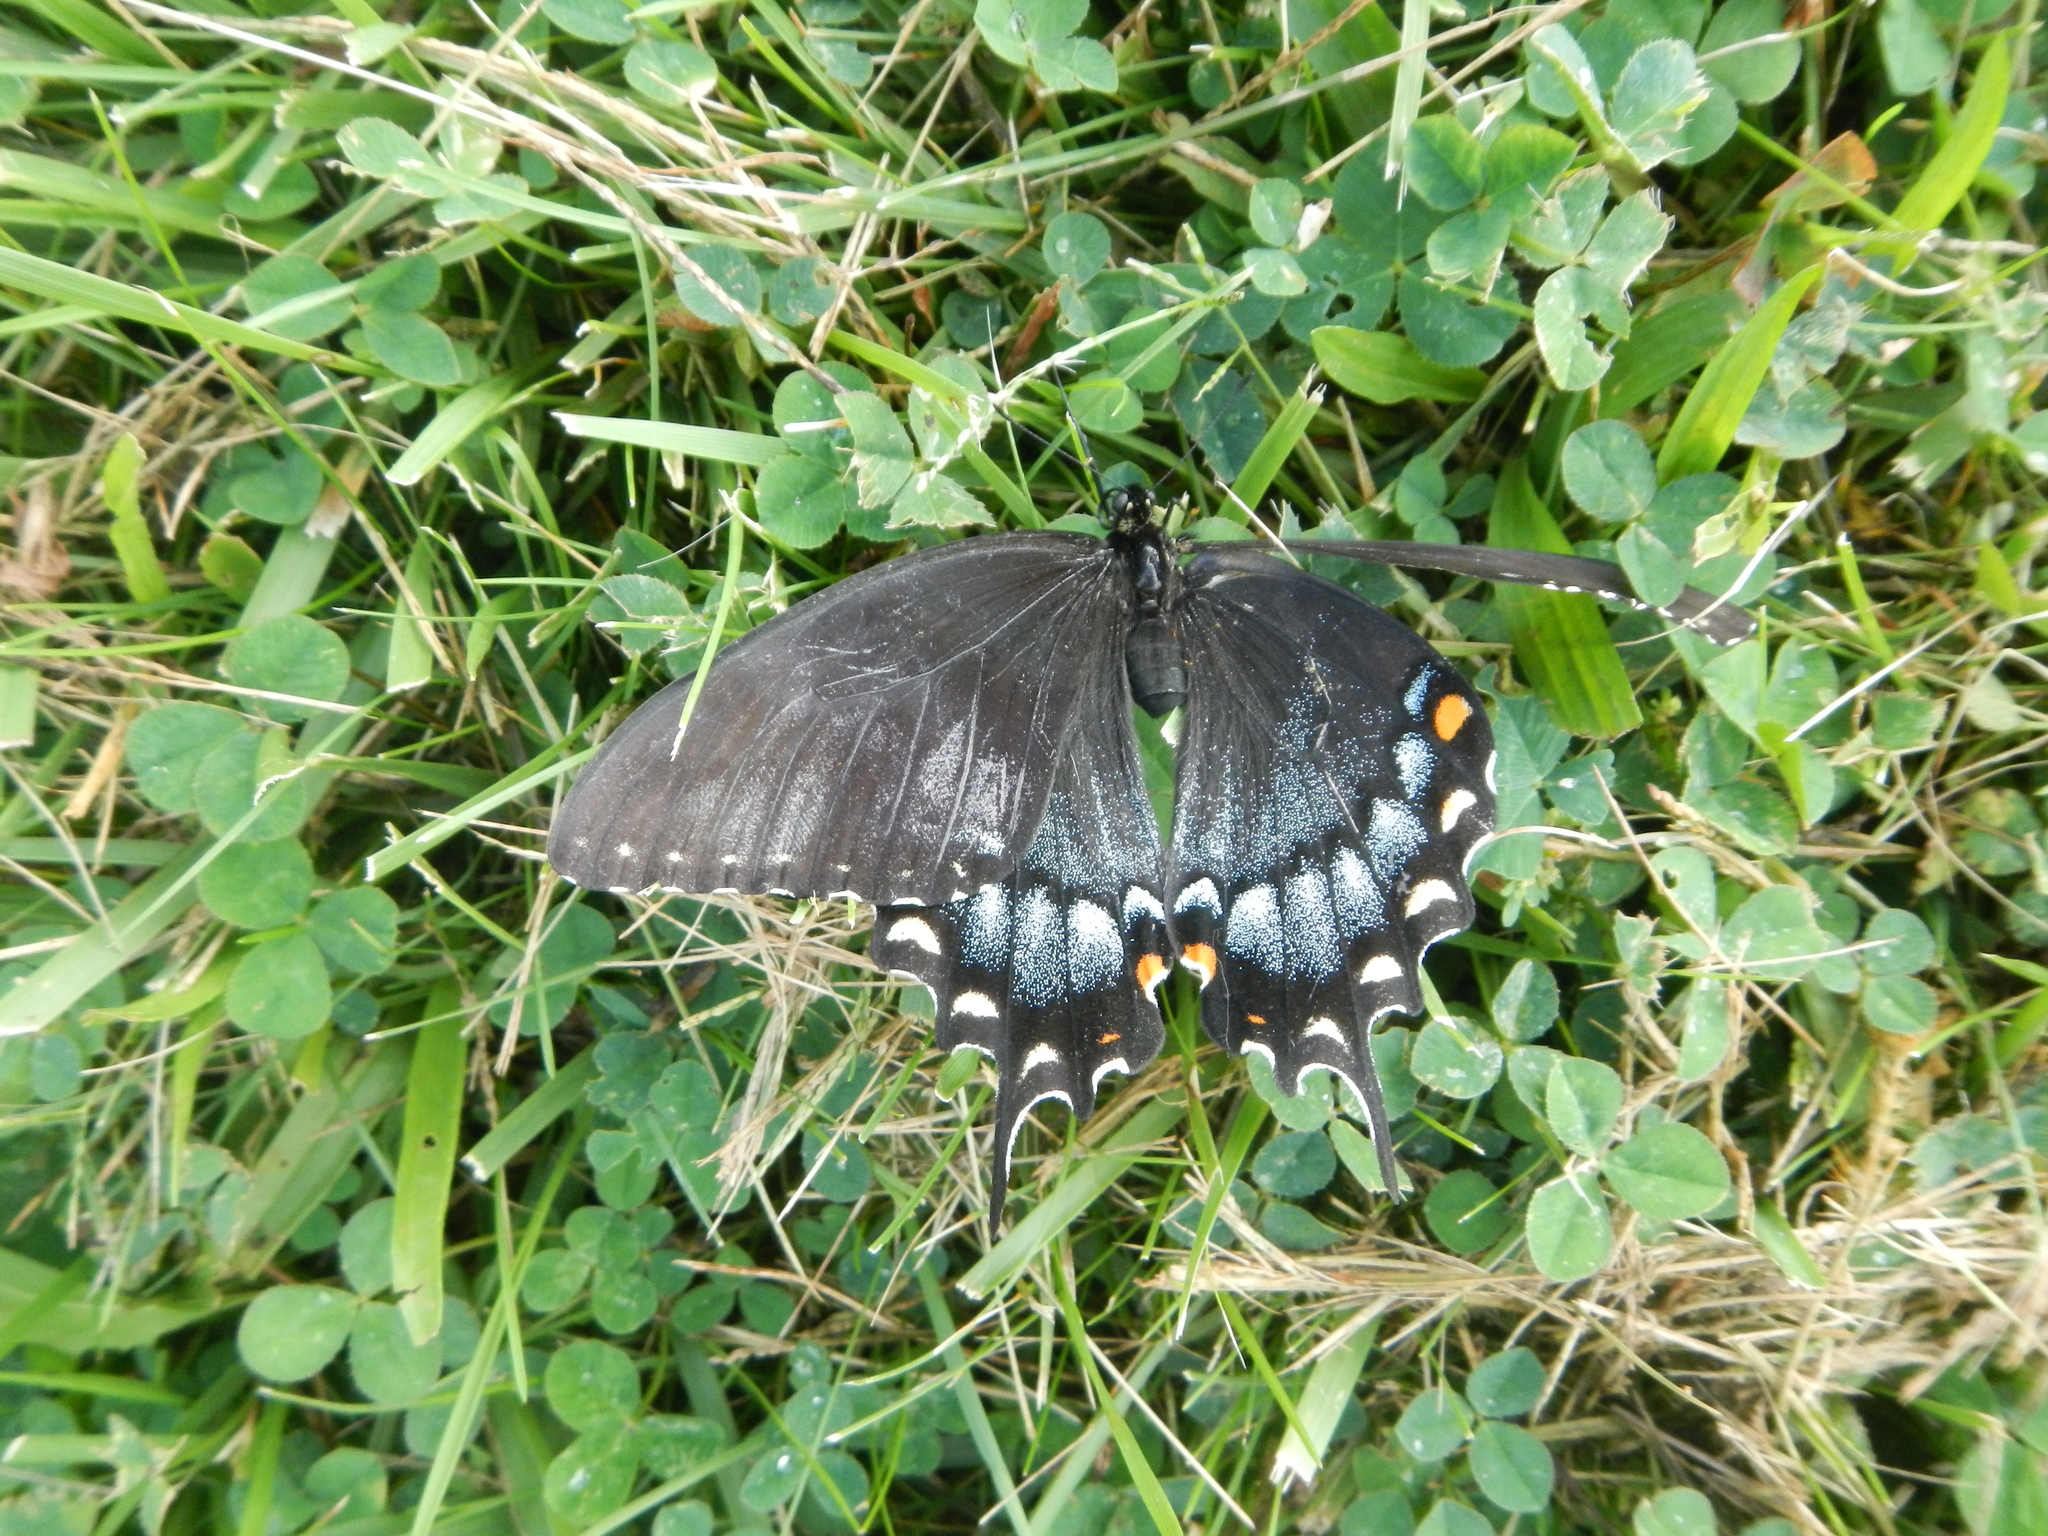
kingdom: Animalia
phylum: Arthropoda
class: Insecta
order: Lepidoptera
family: Papilionidae
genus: Papilio
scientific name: Papilio glaucus
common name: Tiger swallowtail
